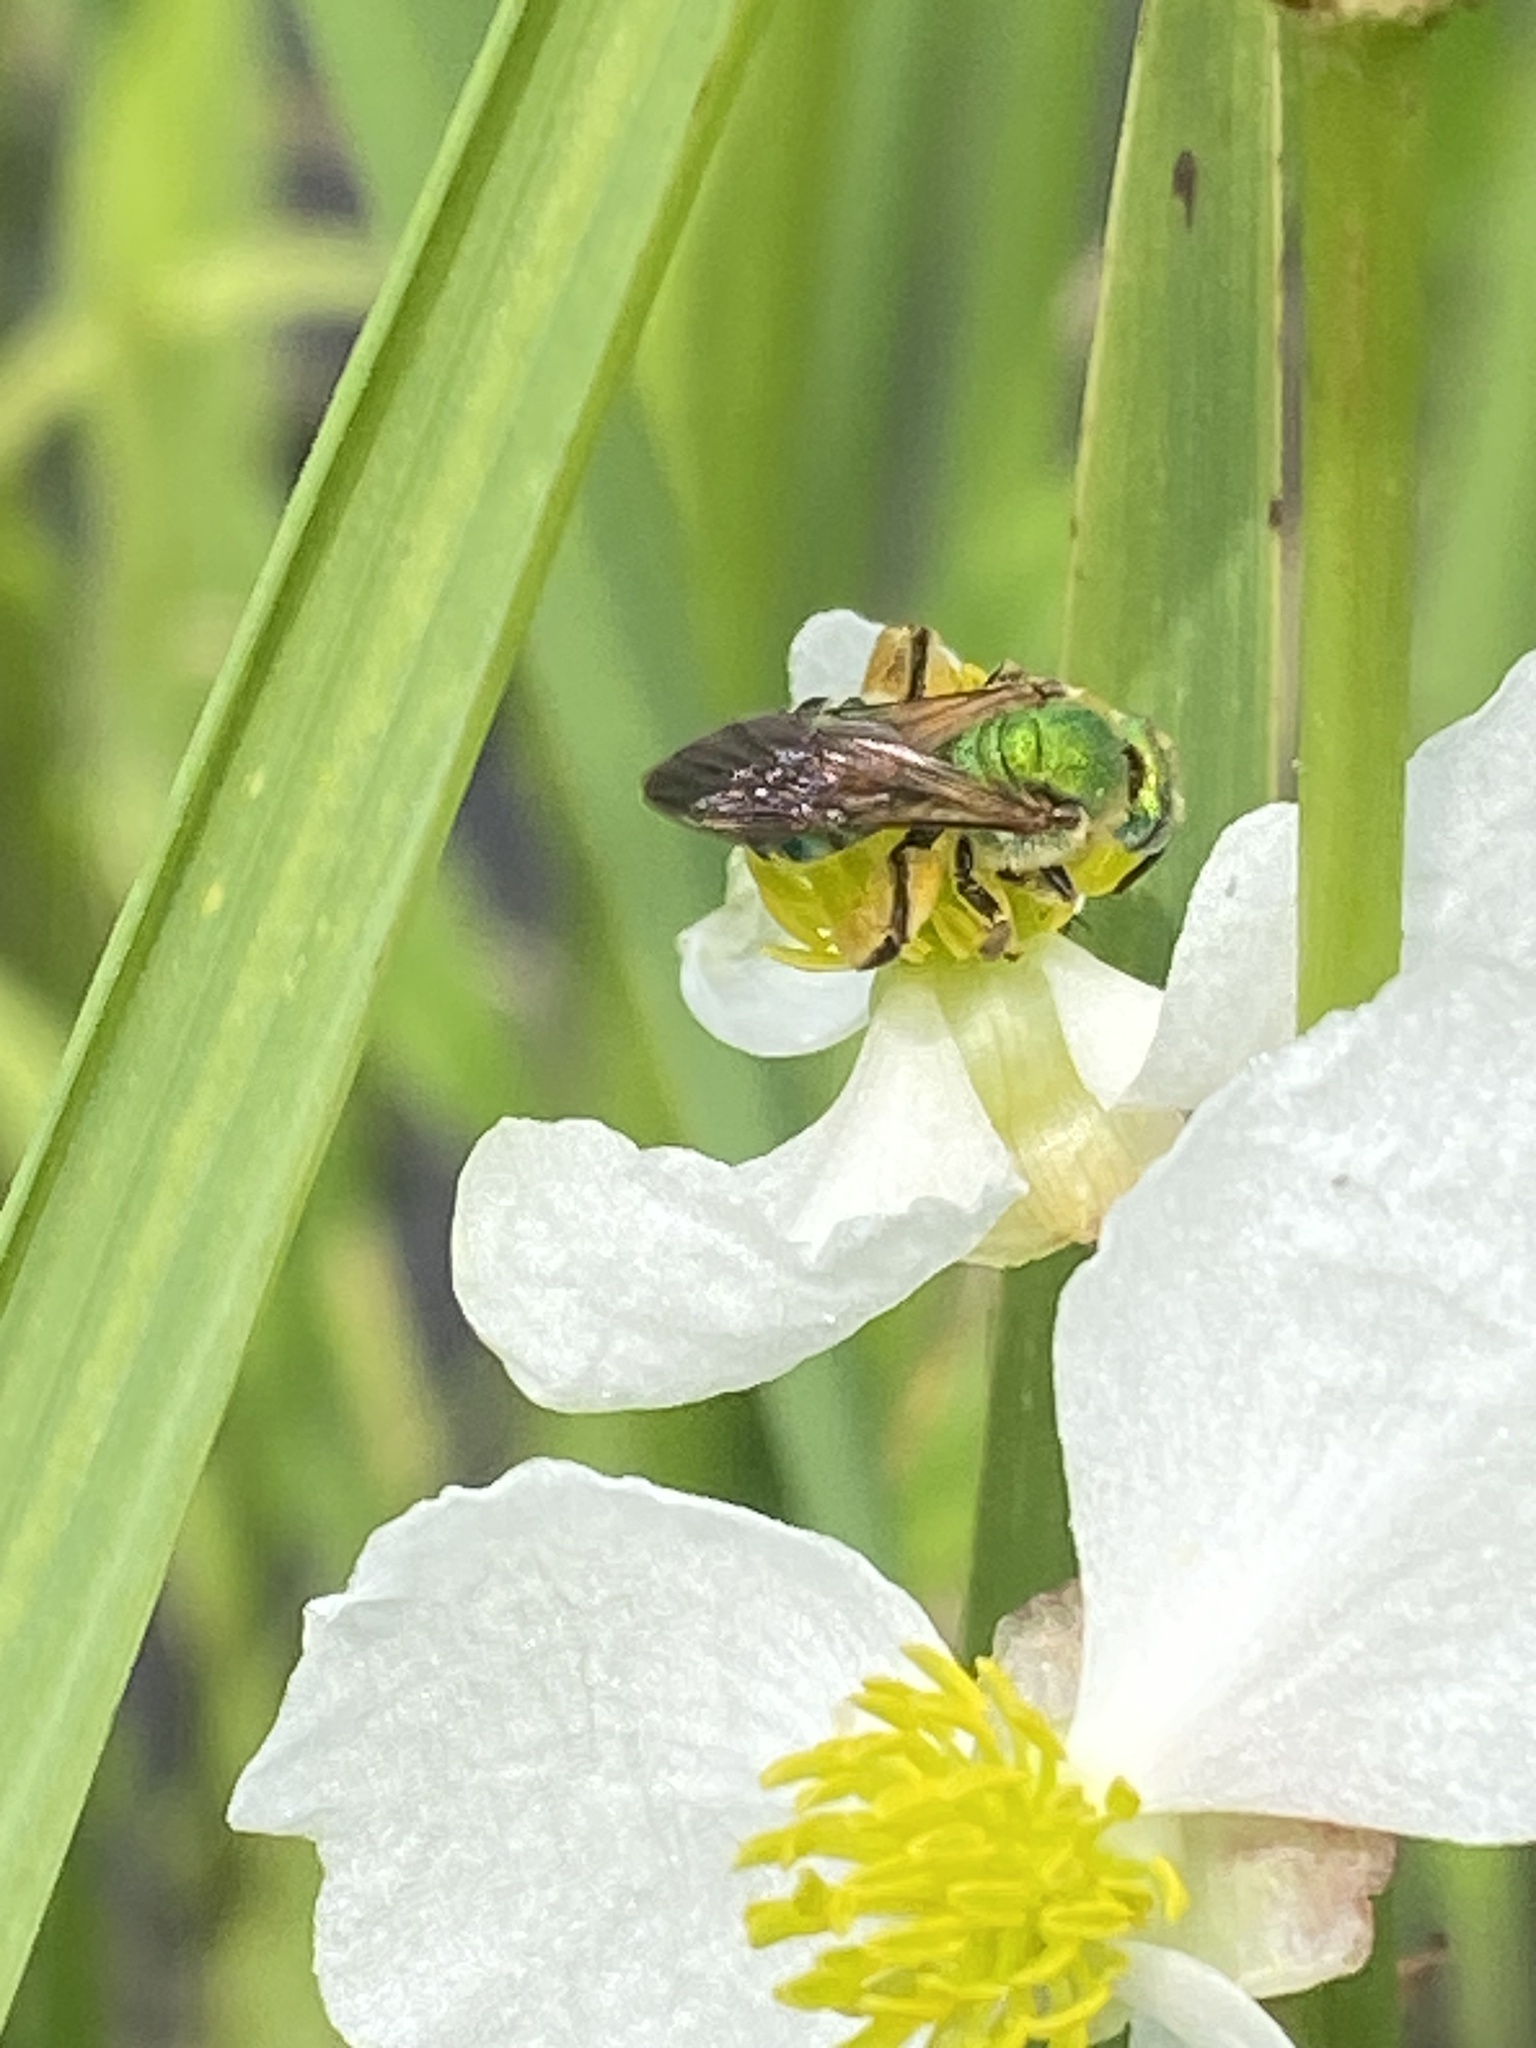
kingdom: Animalia
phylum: Arthropoda
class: Insecta
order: Hymenoptera
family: Halictidae
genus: Agapostemon
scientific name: Agapostemon splendens
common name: Brown-winged striped sweat bee
